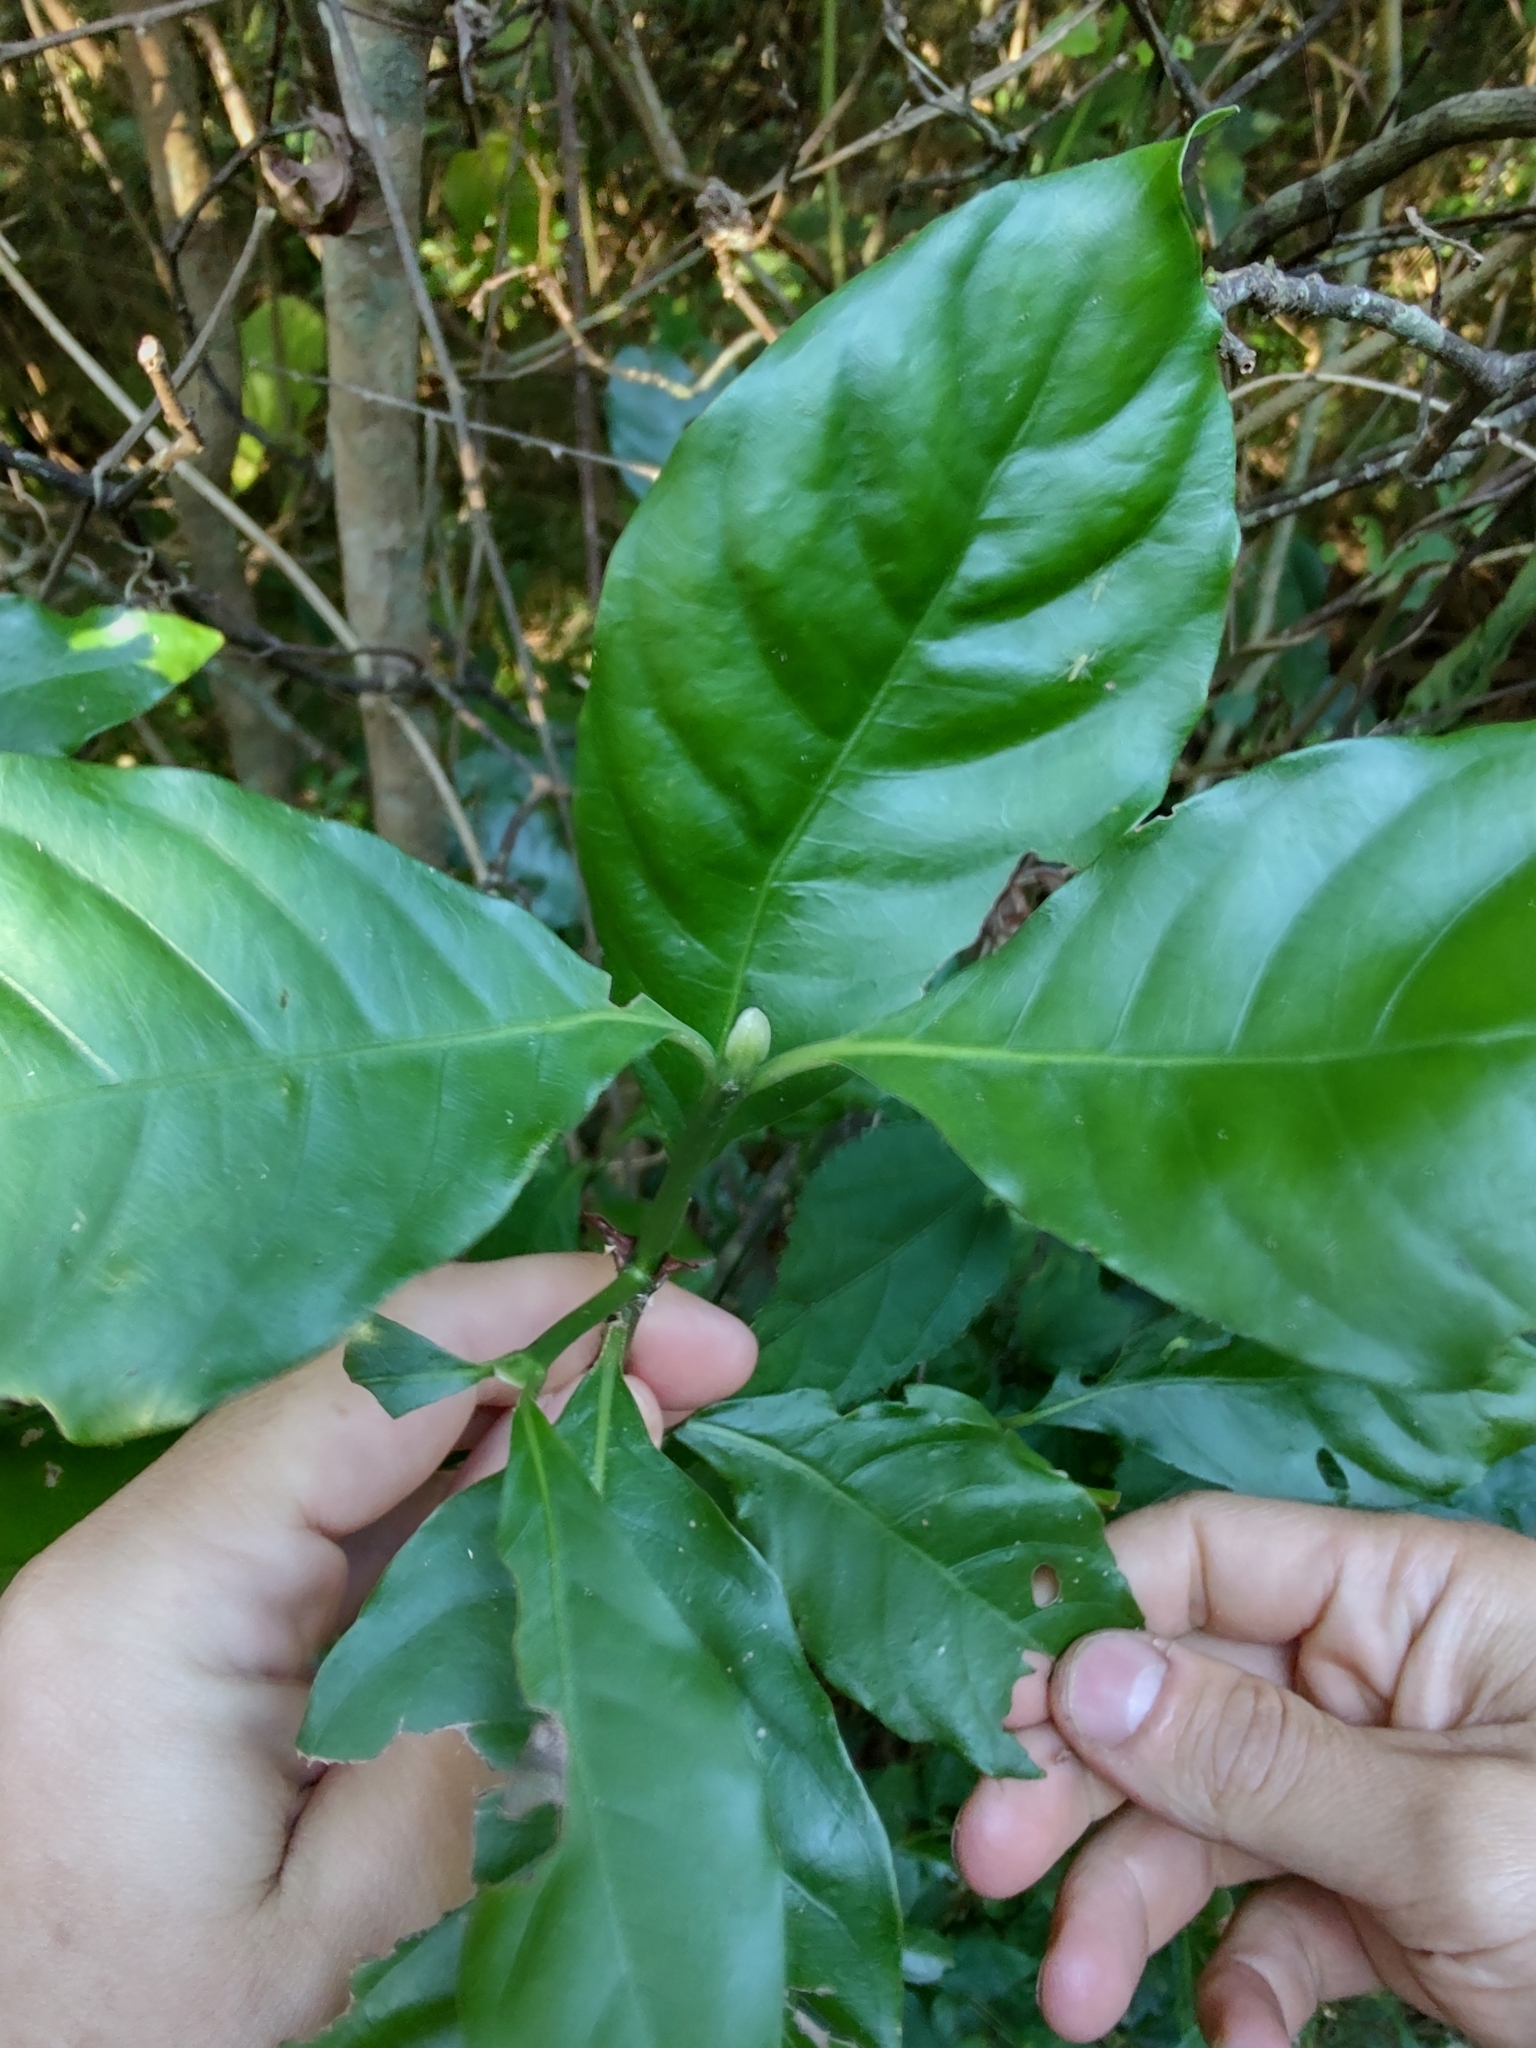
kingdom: Plantae
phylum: Tracheophyta
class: Magnoliopsida
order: Gentianales
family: Rubiaceae
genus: Psychotria
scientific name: Psychotria carthagenensis
